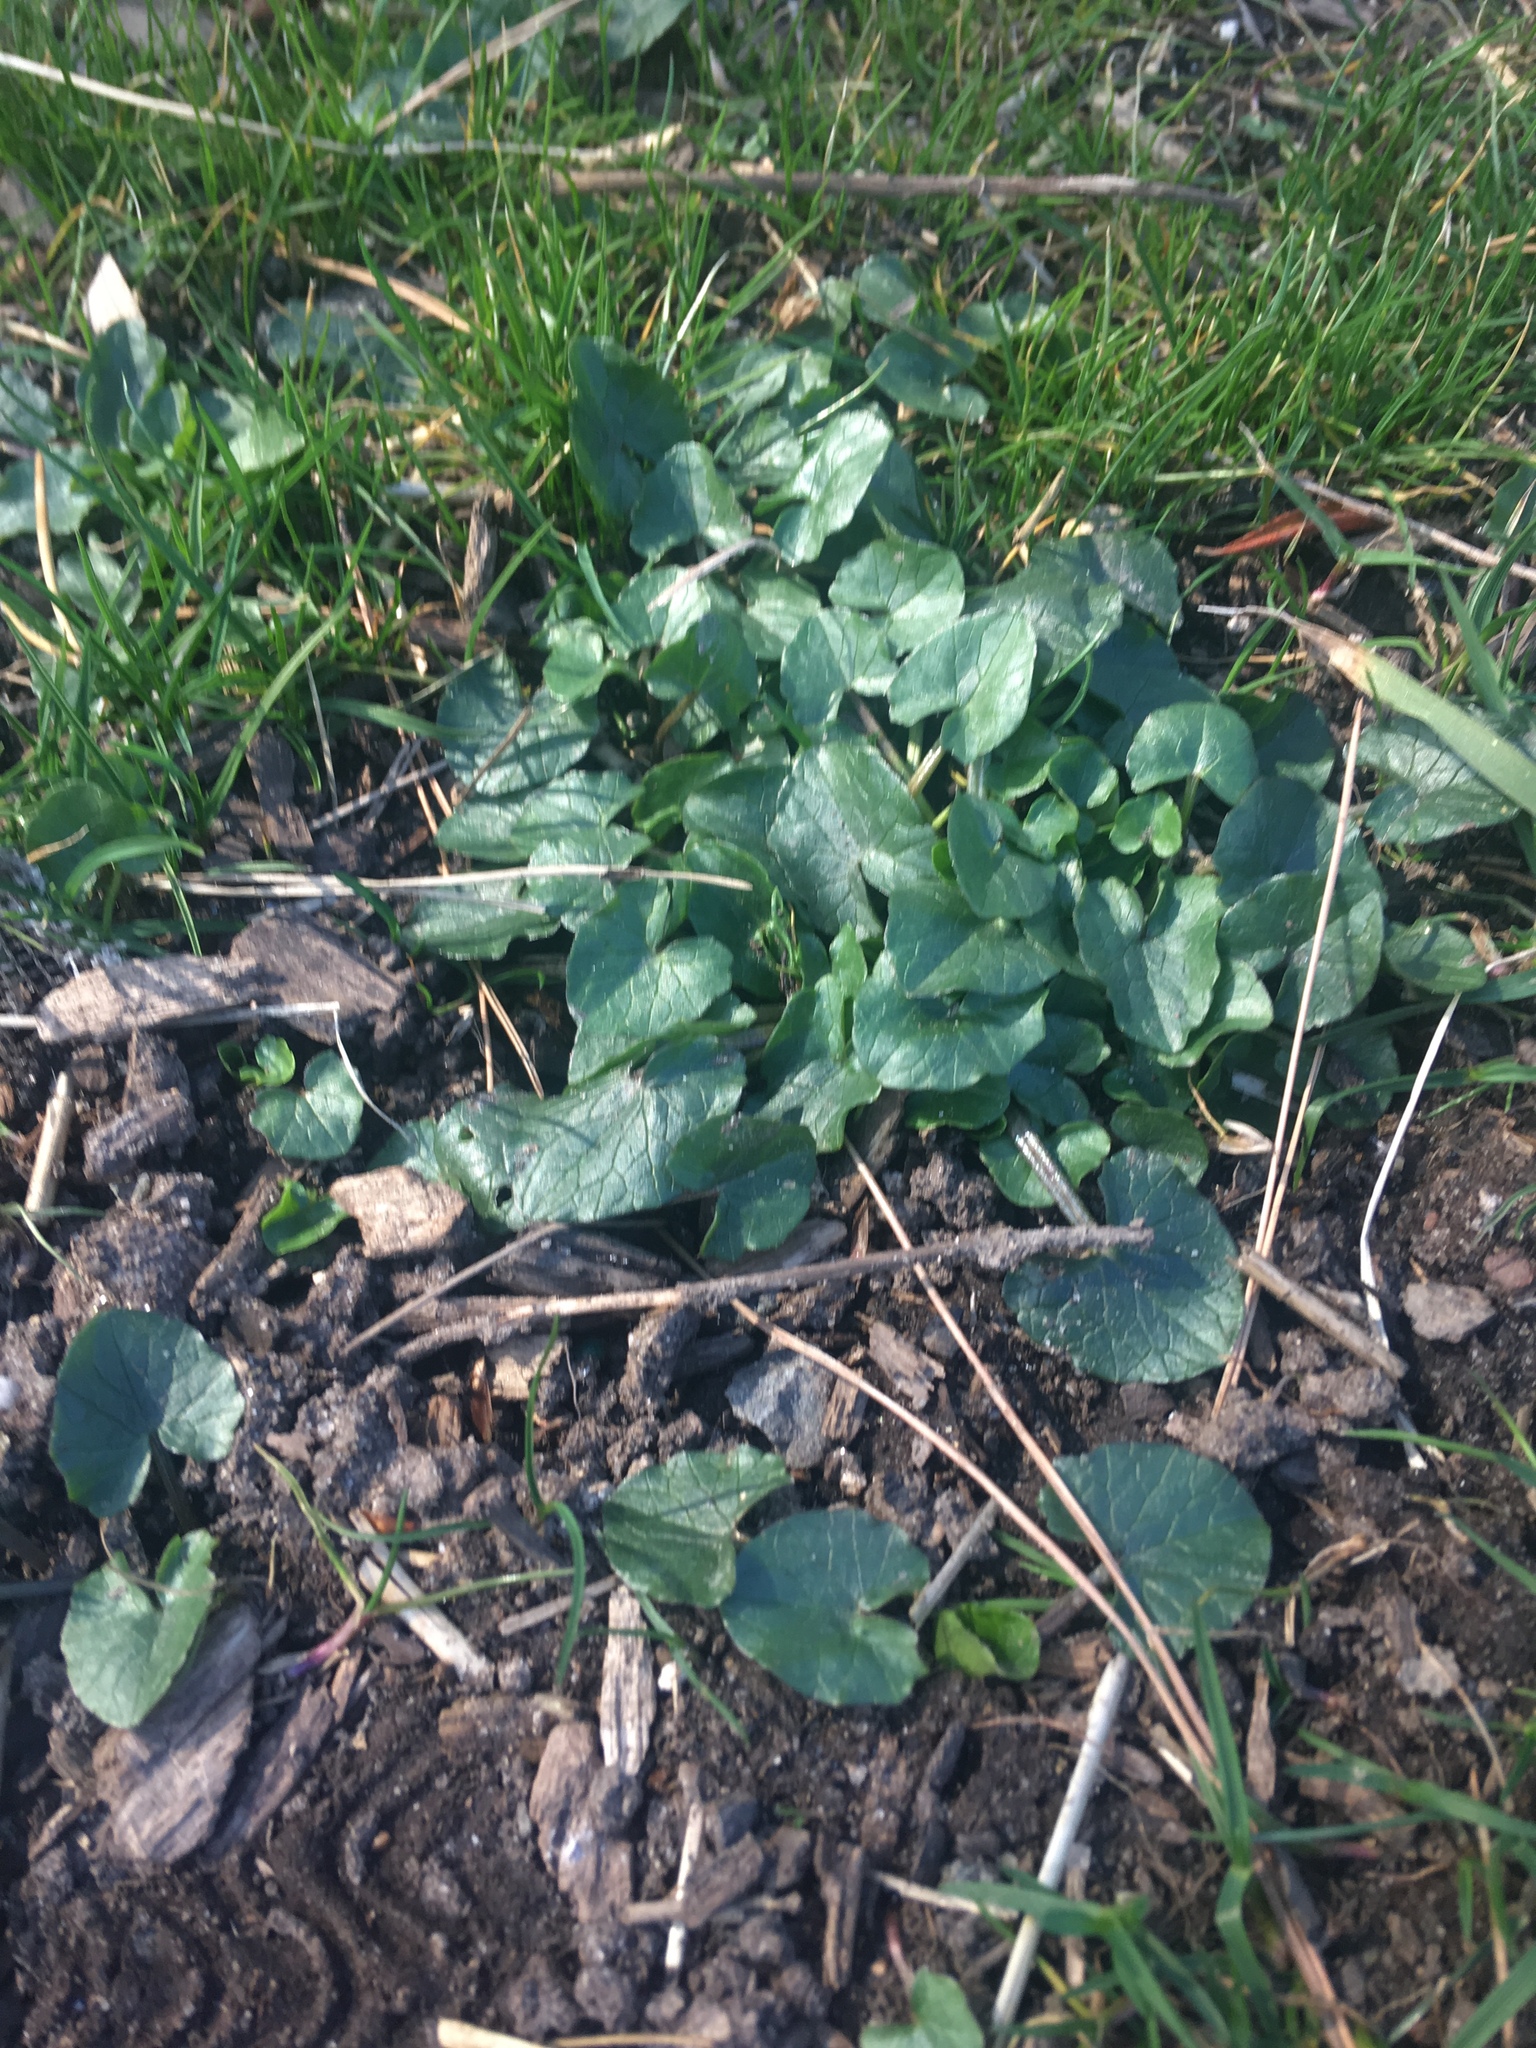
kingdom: Plantae
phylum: Tracheophyta
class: Magnoliopsida
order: Ranunculales
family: Ranunculaceae
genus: Ficaria
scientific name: Ficaria verna
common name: Lesser celandine
